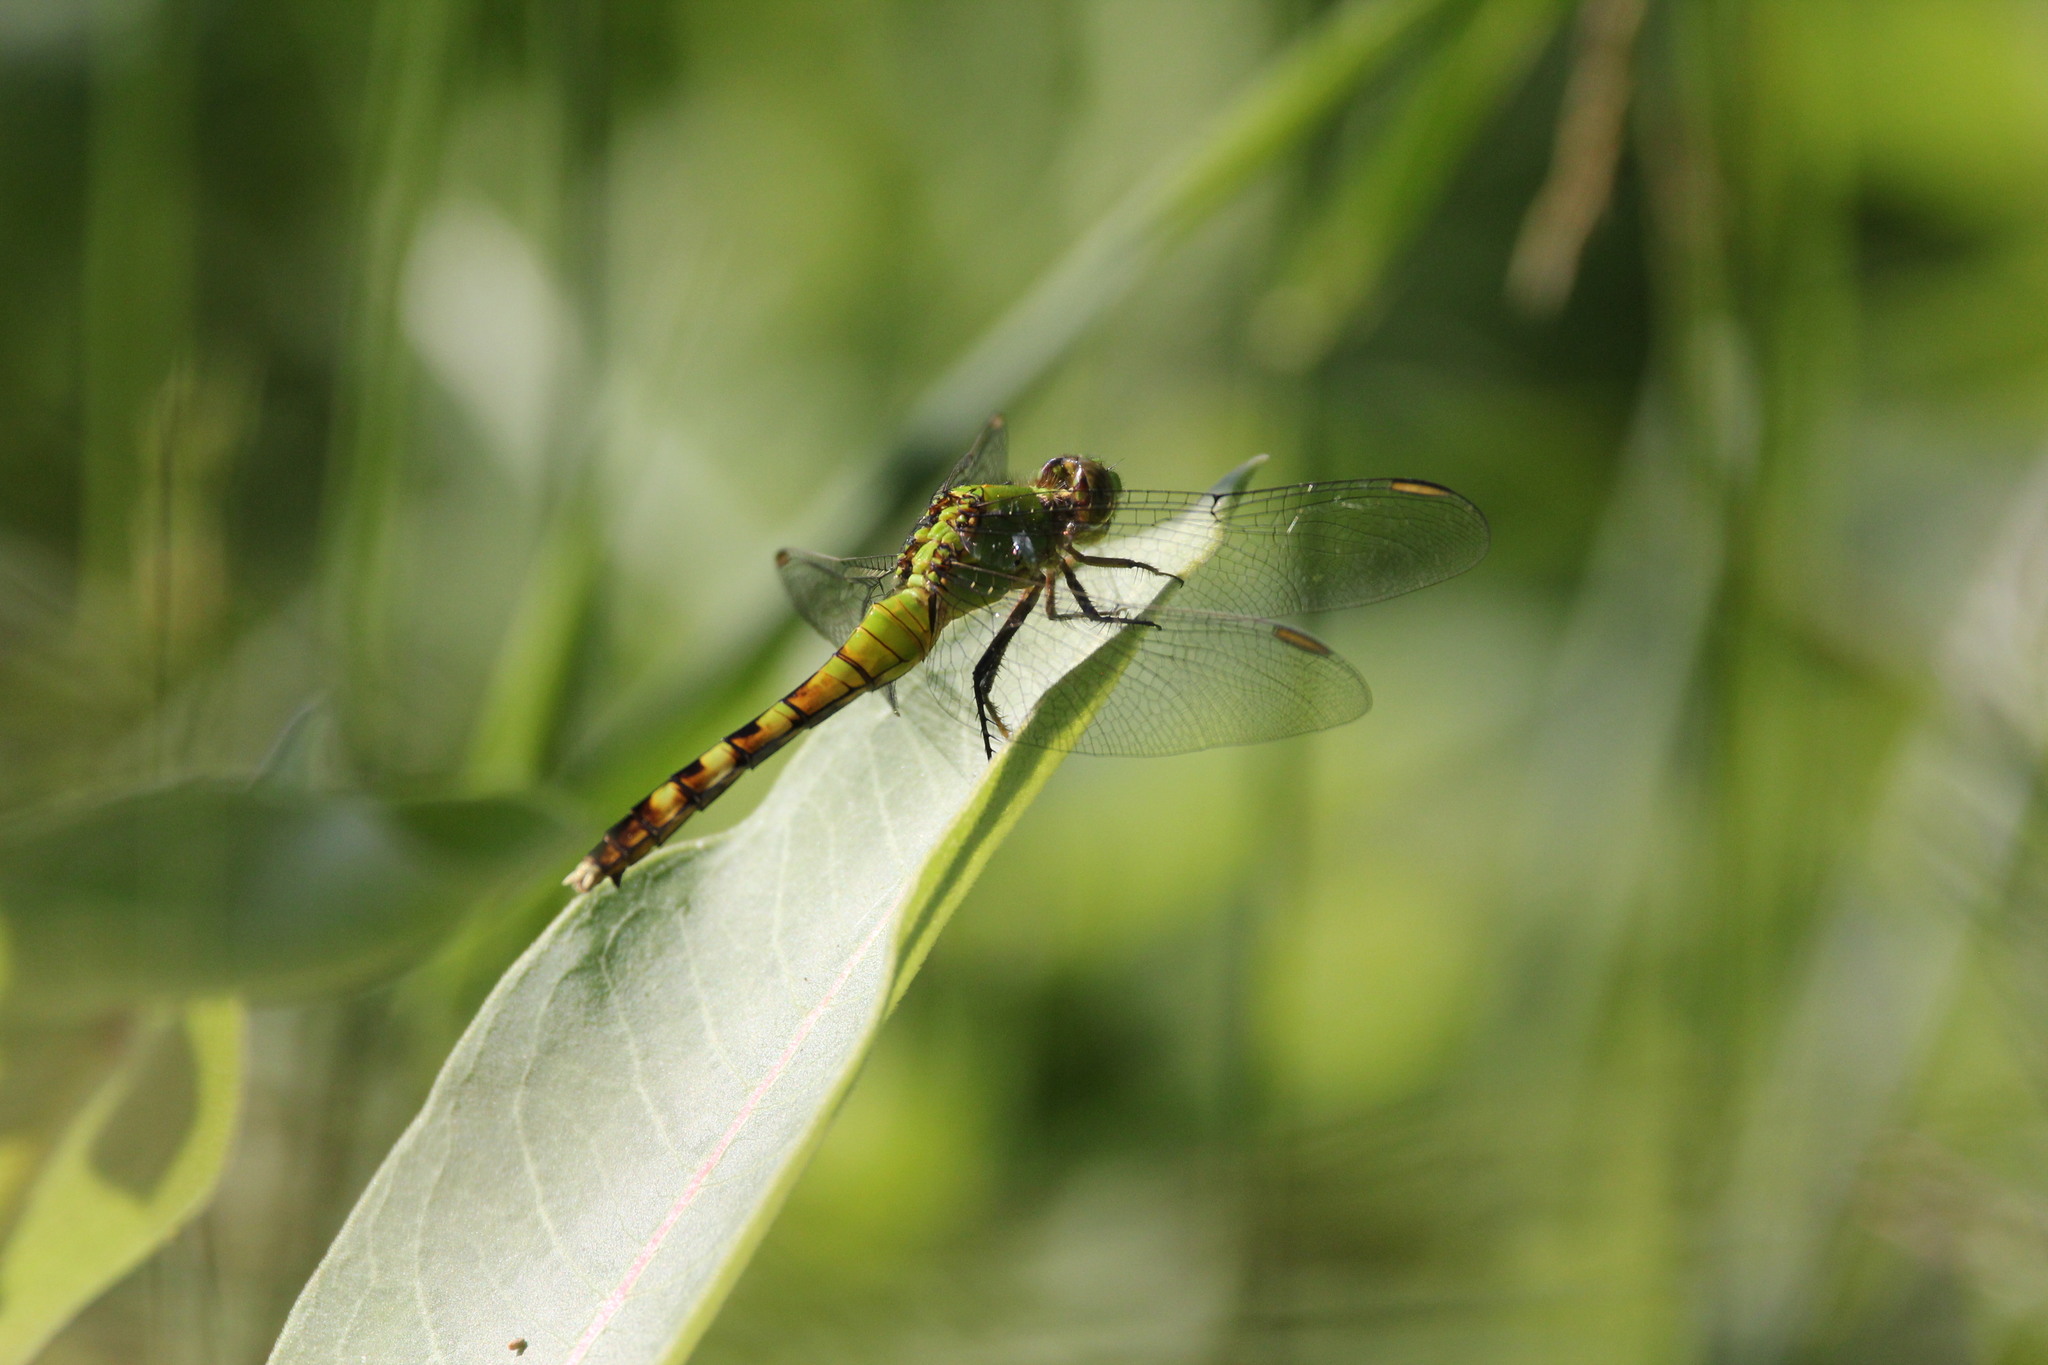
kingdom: Animalia
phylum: Arthropoda
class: Insecta
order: Odonata
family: Libellulidae
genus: Erythemis
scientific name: Erythemis simplicicollis
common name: Eastern pondhawk
